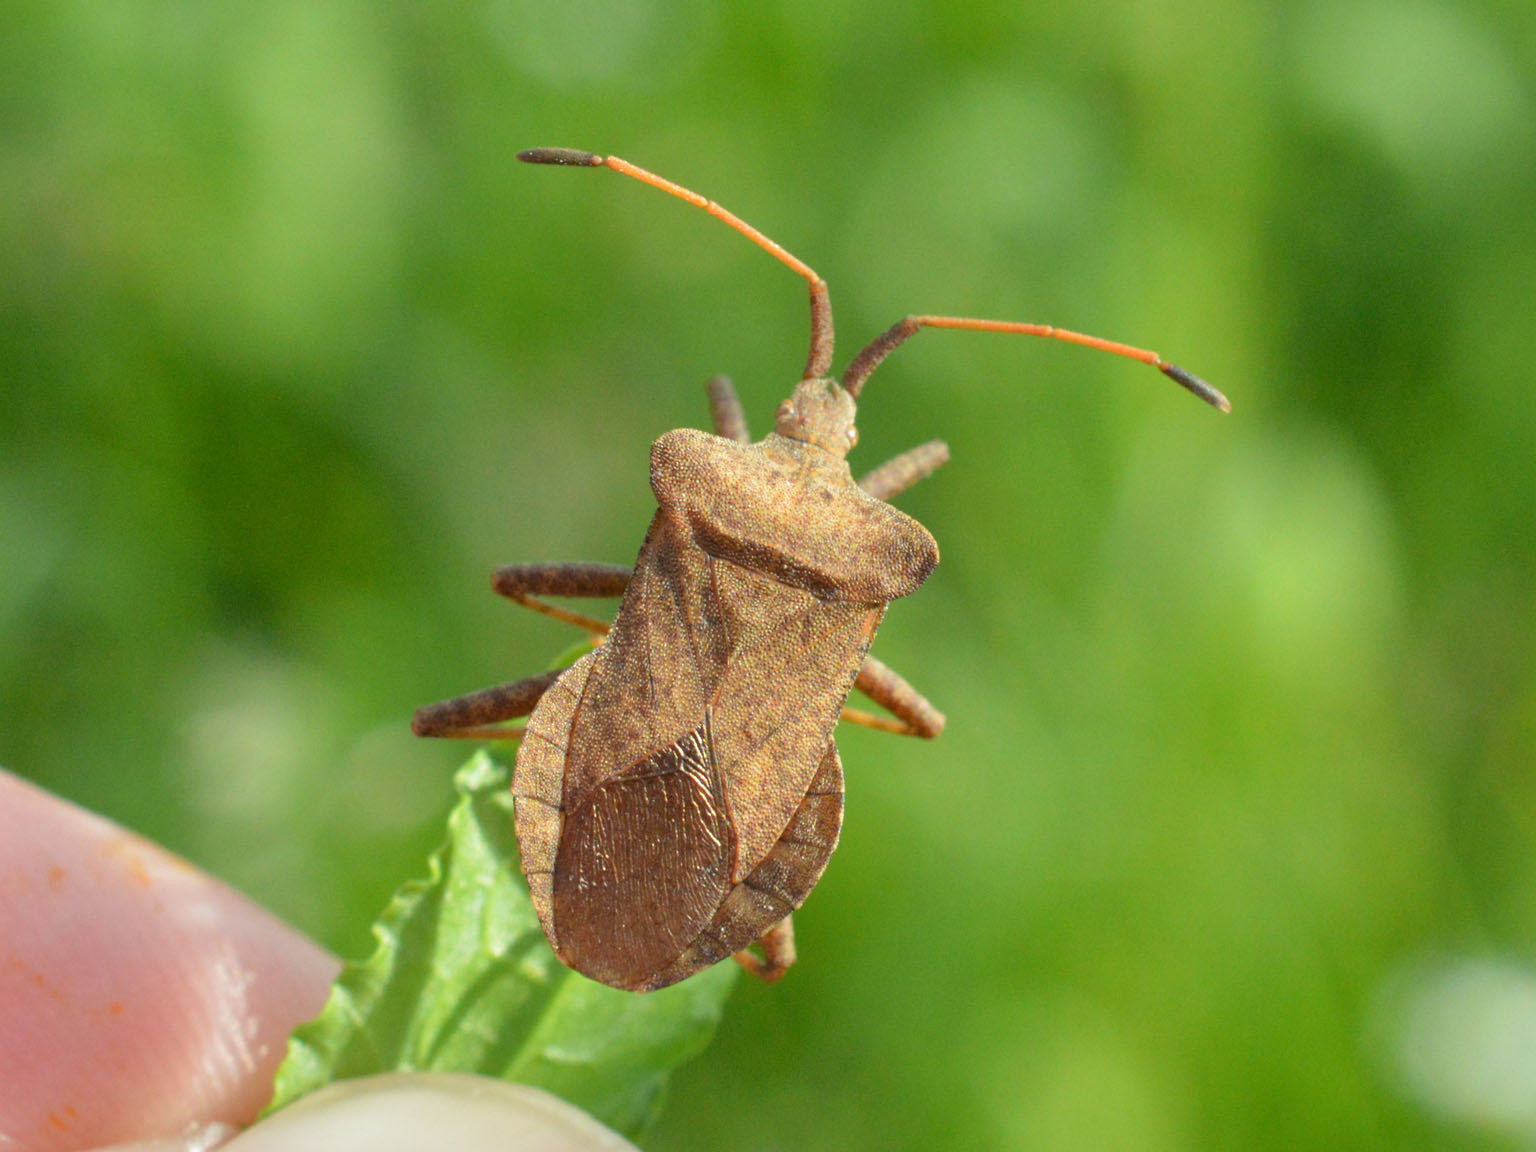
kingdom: Animalia
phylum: Arthropoda
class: Insecta
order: Hemiptera
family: Coreidae
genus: Coreus
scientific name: Coreus marginatus
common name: Dock bug
